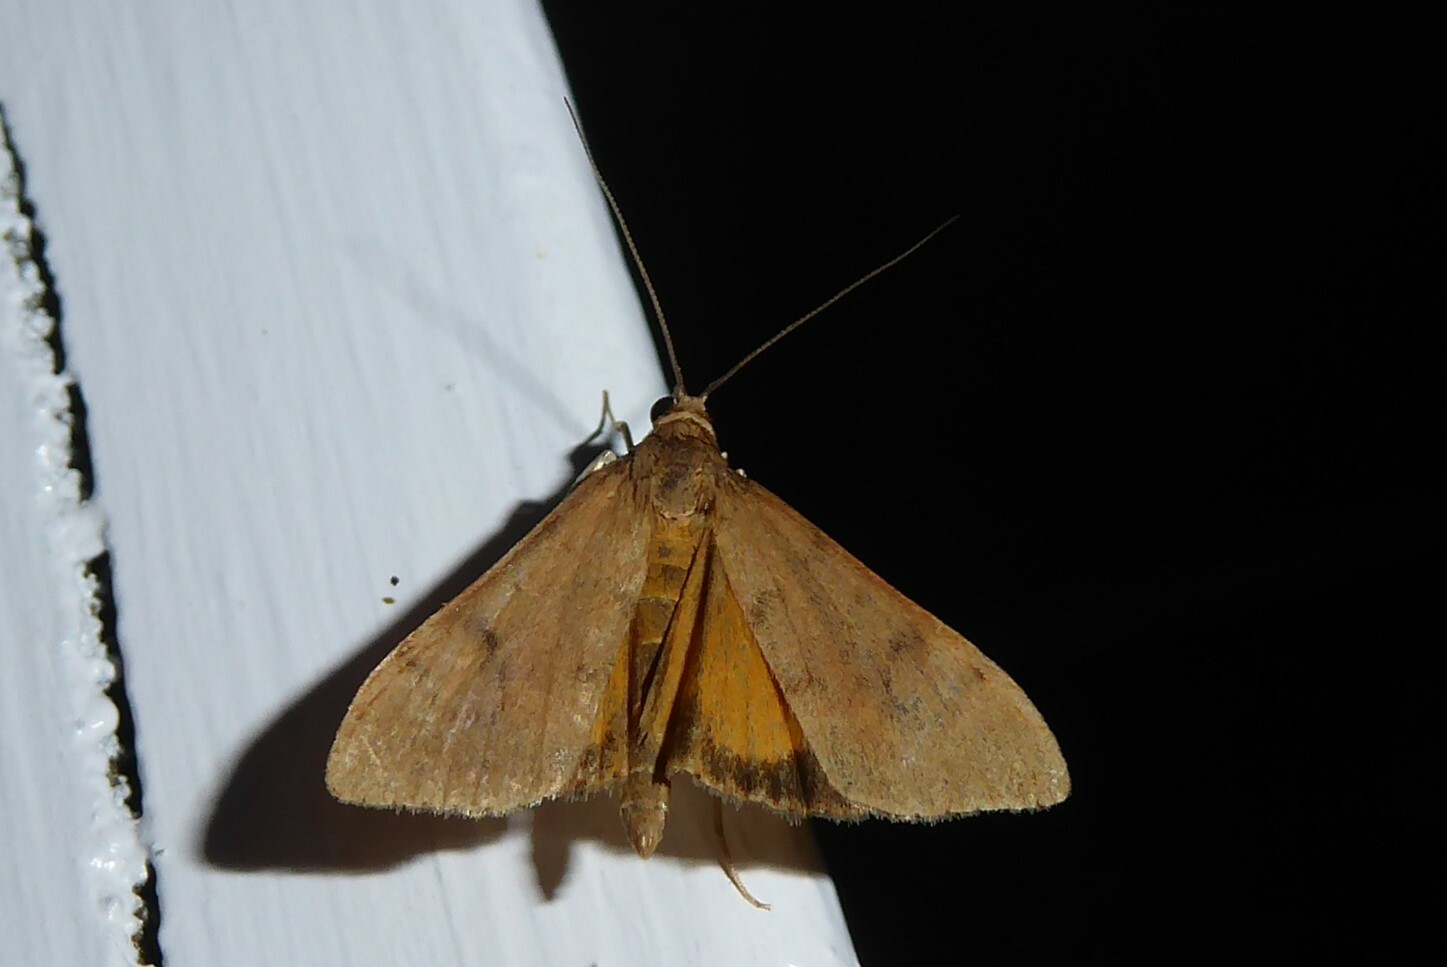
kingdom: Animalia
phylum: Arthropoda
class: Insecta
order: Lepidoptera
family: Crambidae
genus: Uresiphita
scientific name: Uresiphita
